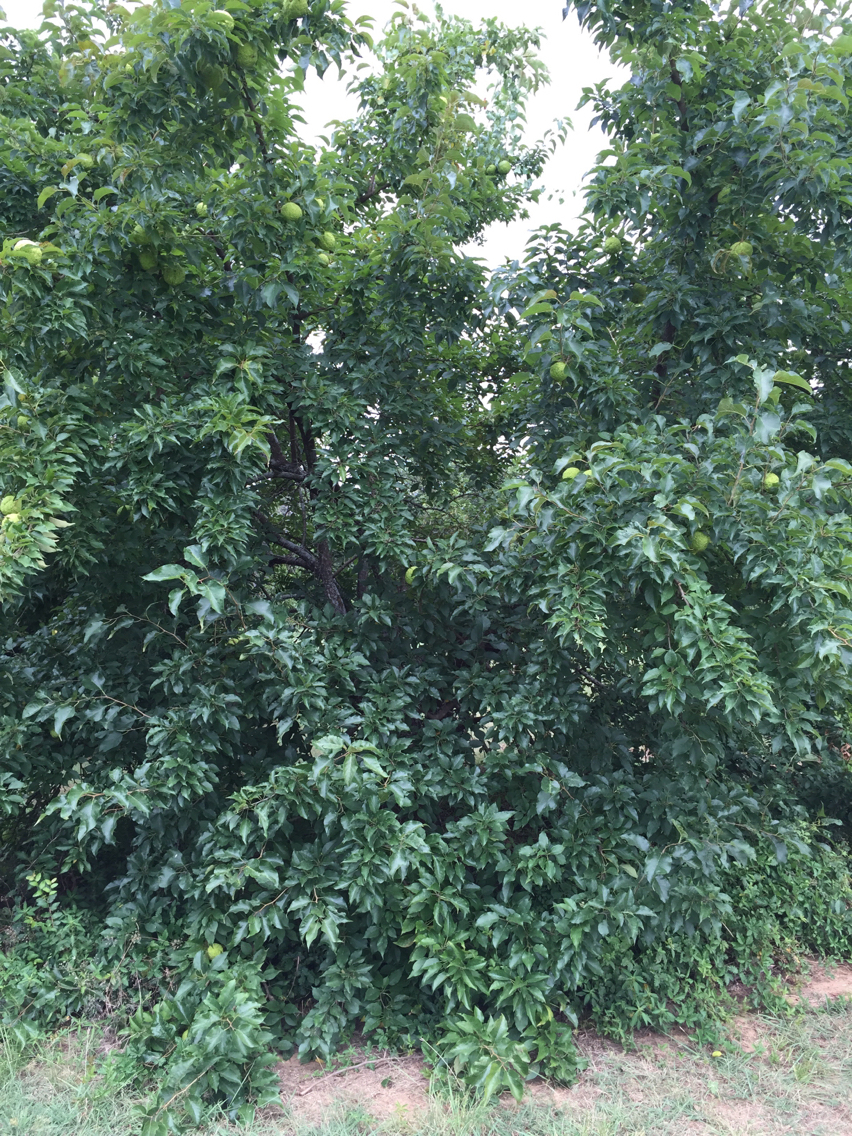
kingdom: Plantae
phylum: Tracheophyta
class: Magnoliopsida
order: Rosales
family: Moraceae
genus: Maclura
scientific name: Maclura pomifera
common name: Osage-orange
